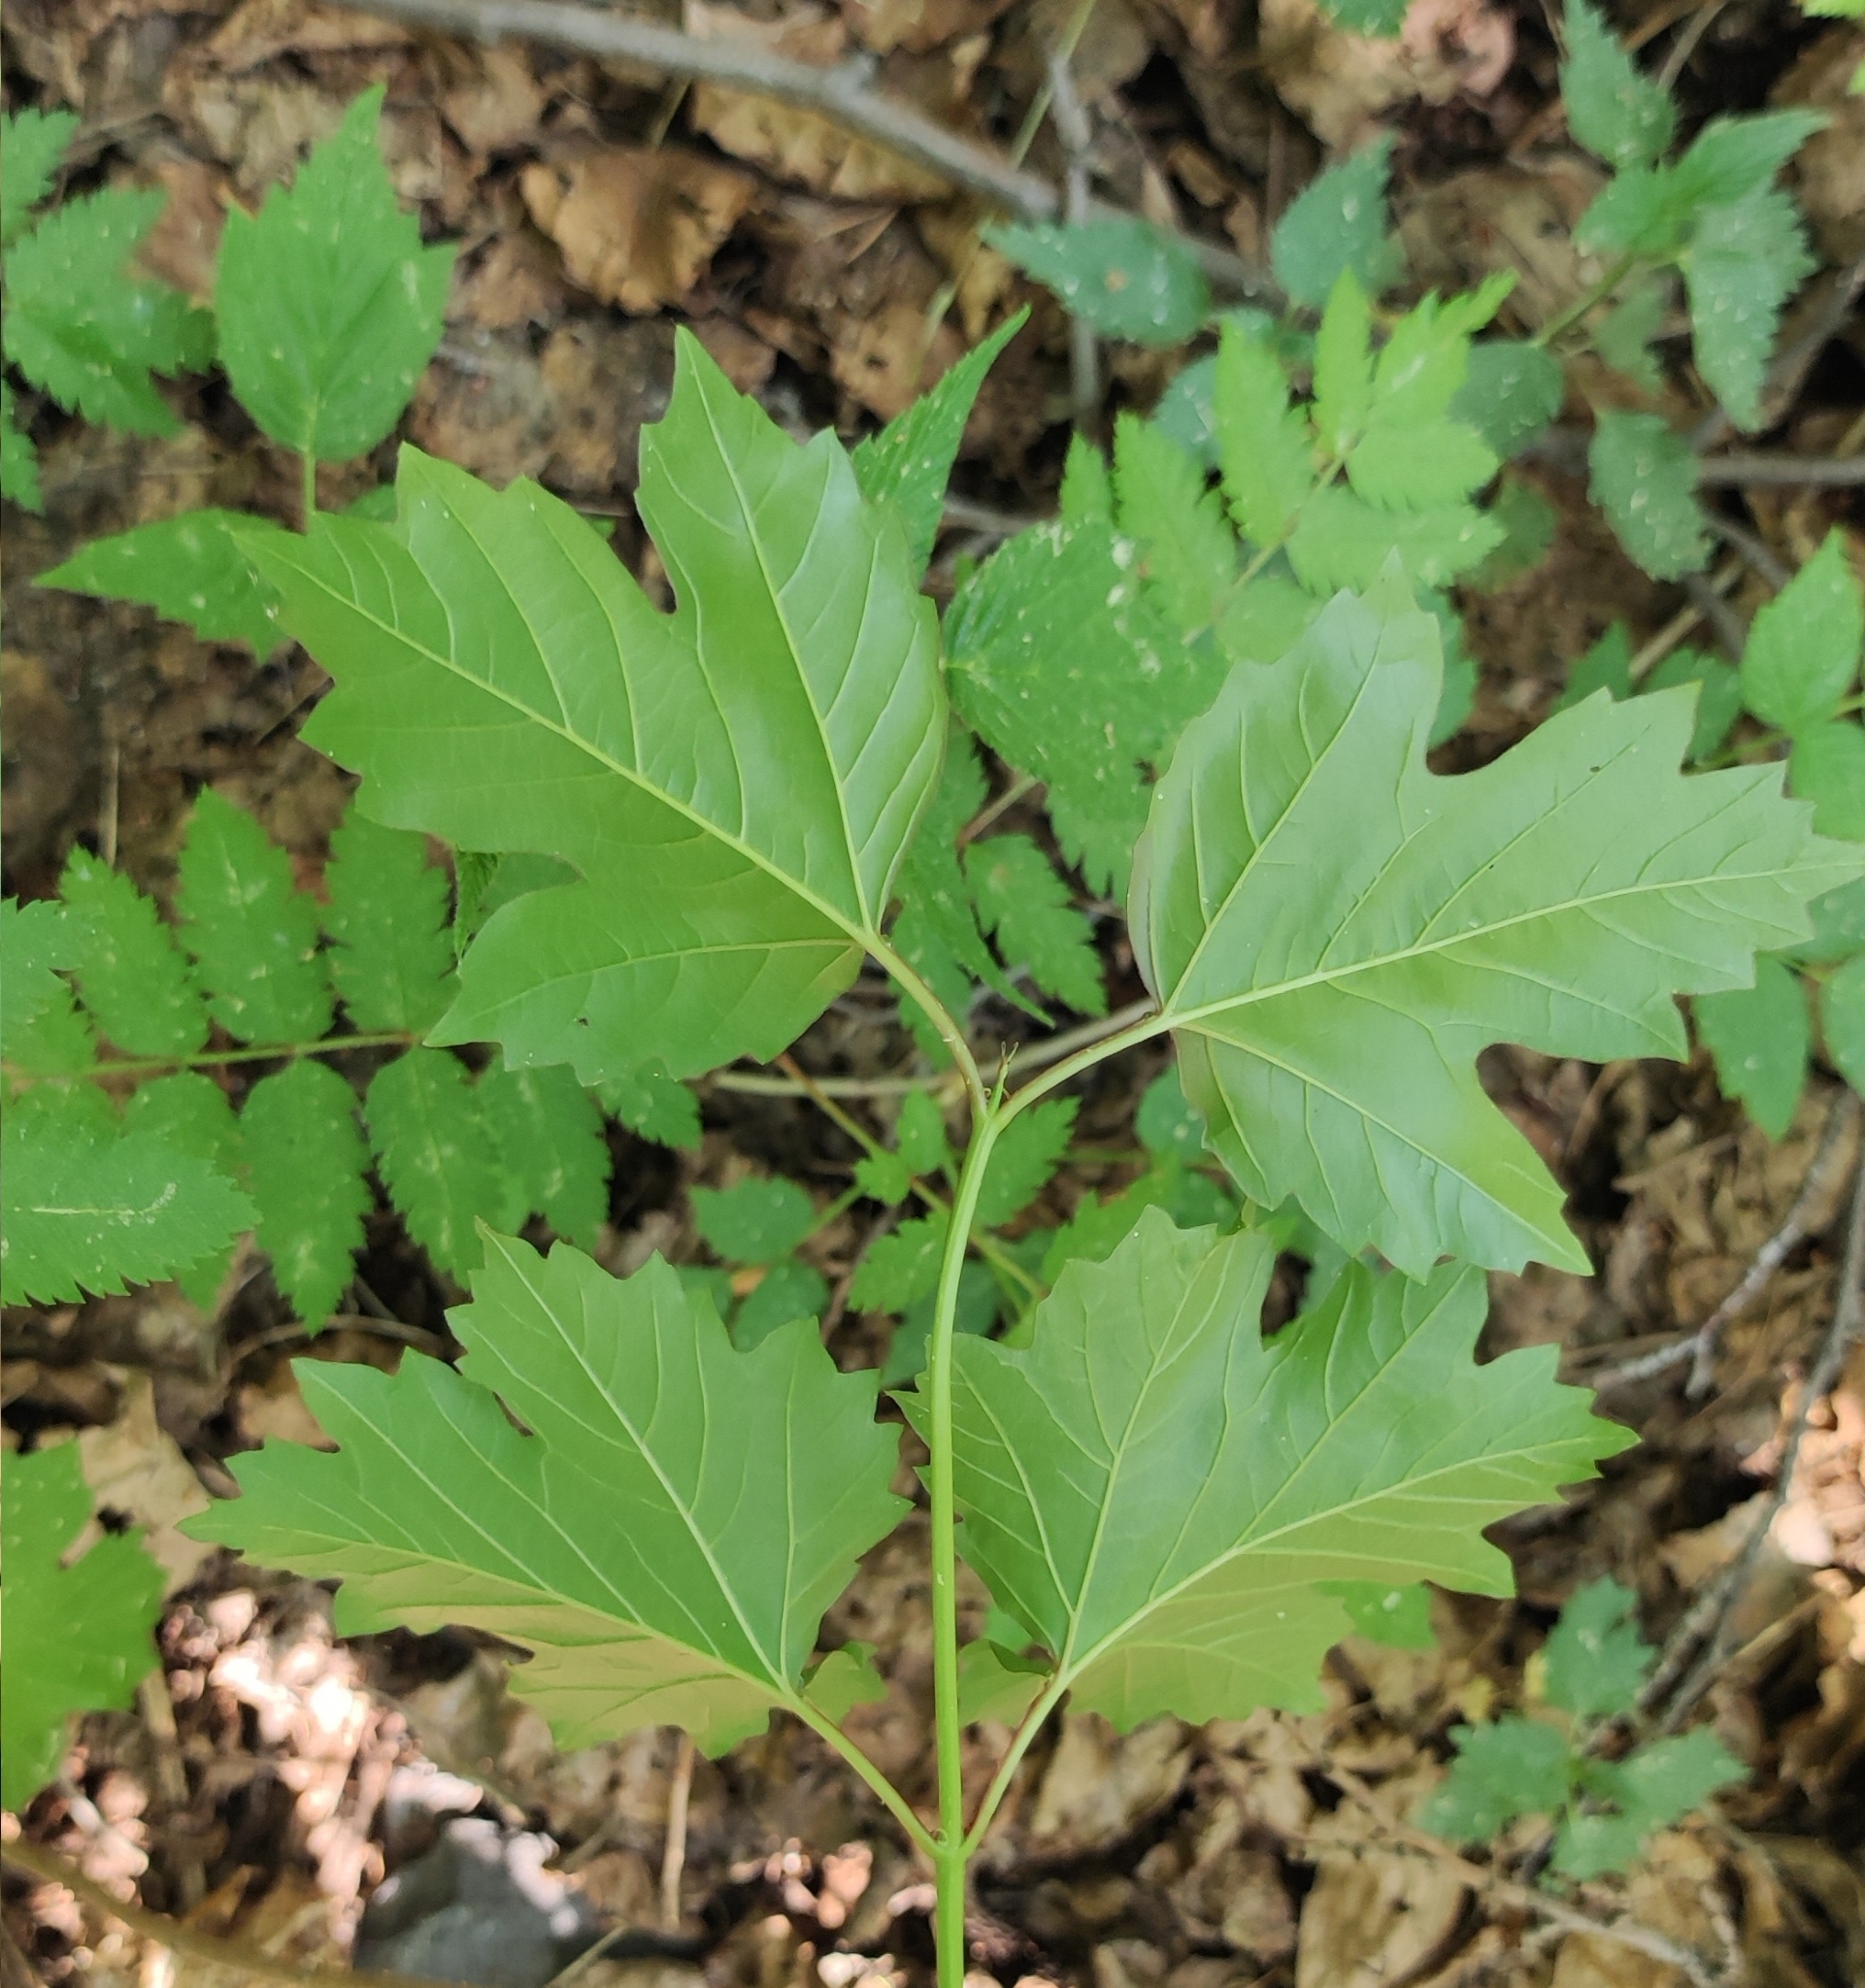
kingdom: Plantae
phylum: Tracheophyta
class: Magnoliopsida
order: Dipsacales
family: Viburnaceae
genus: Viburnum
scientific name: Viburnum opulus
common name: Guelder-rose
